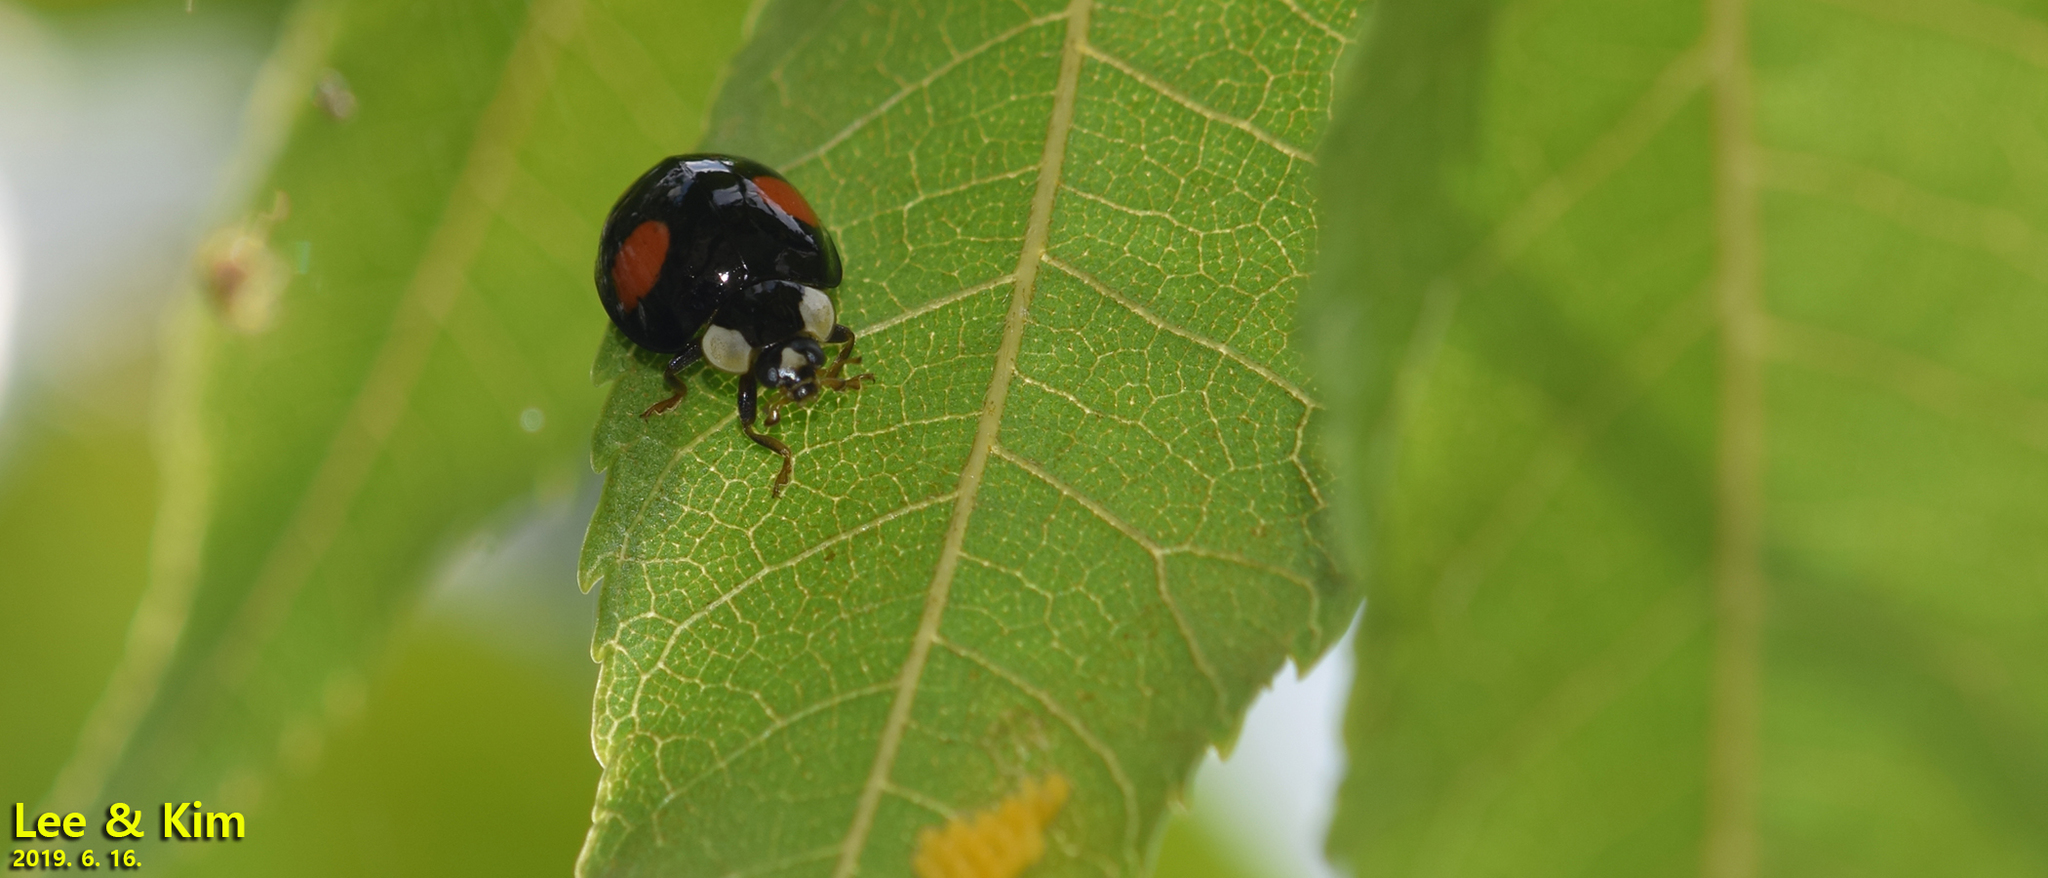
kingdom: Animalia
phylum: Arthropoda
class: Insecta
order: Coleoptera
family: Coccinellidae
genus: Harmonia
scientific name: Harmonia axyridis
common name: Harlequin ladybird
